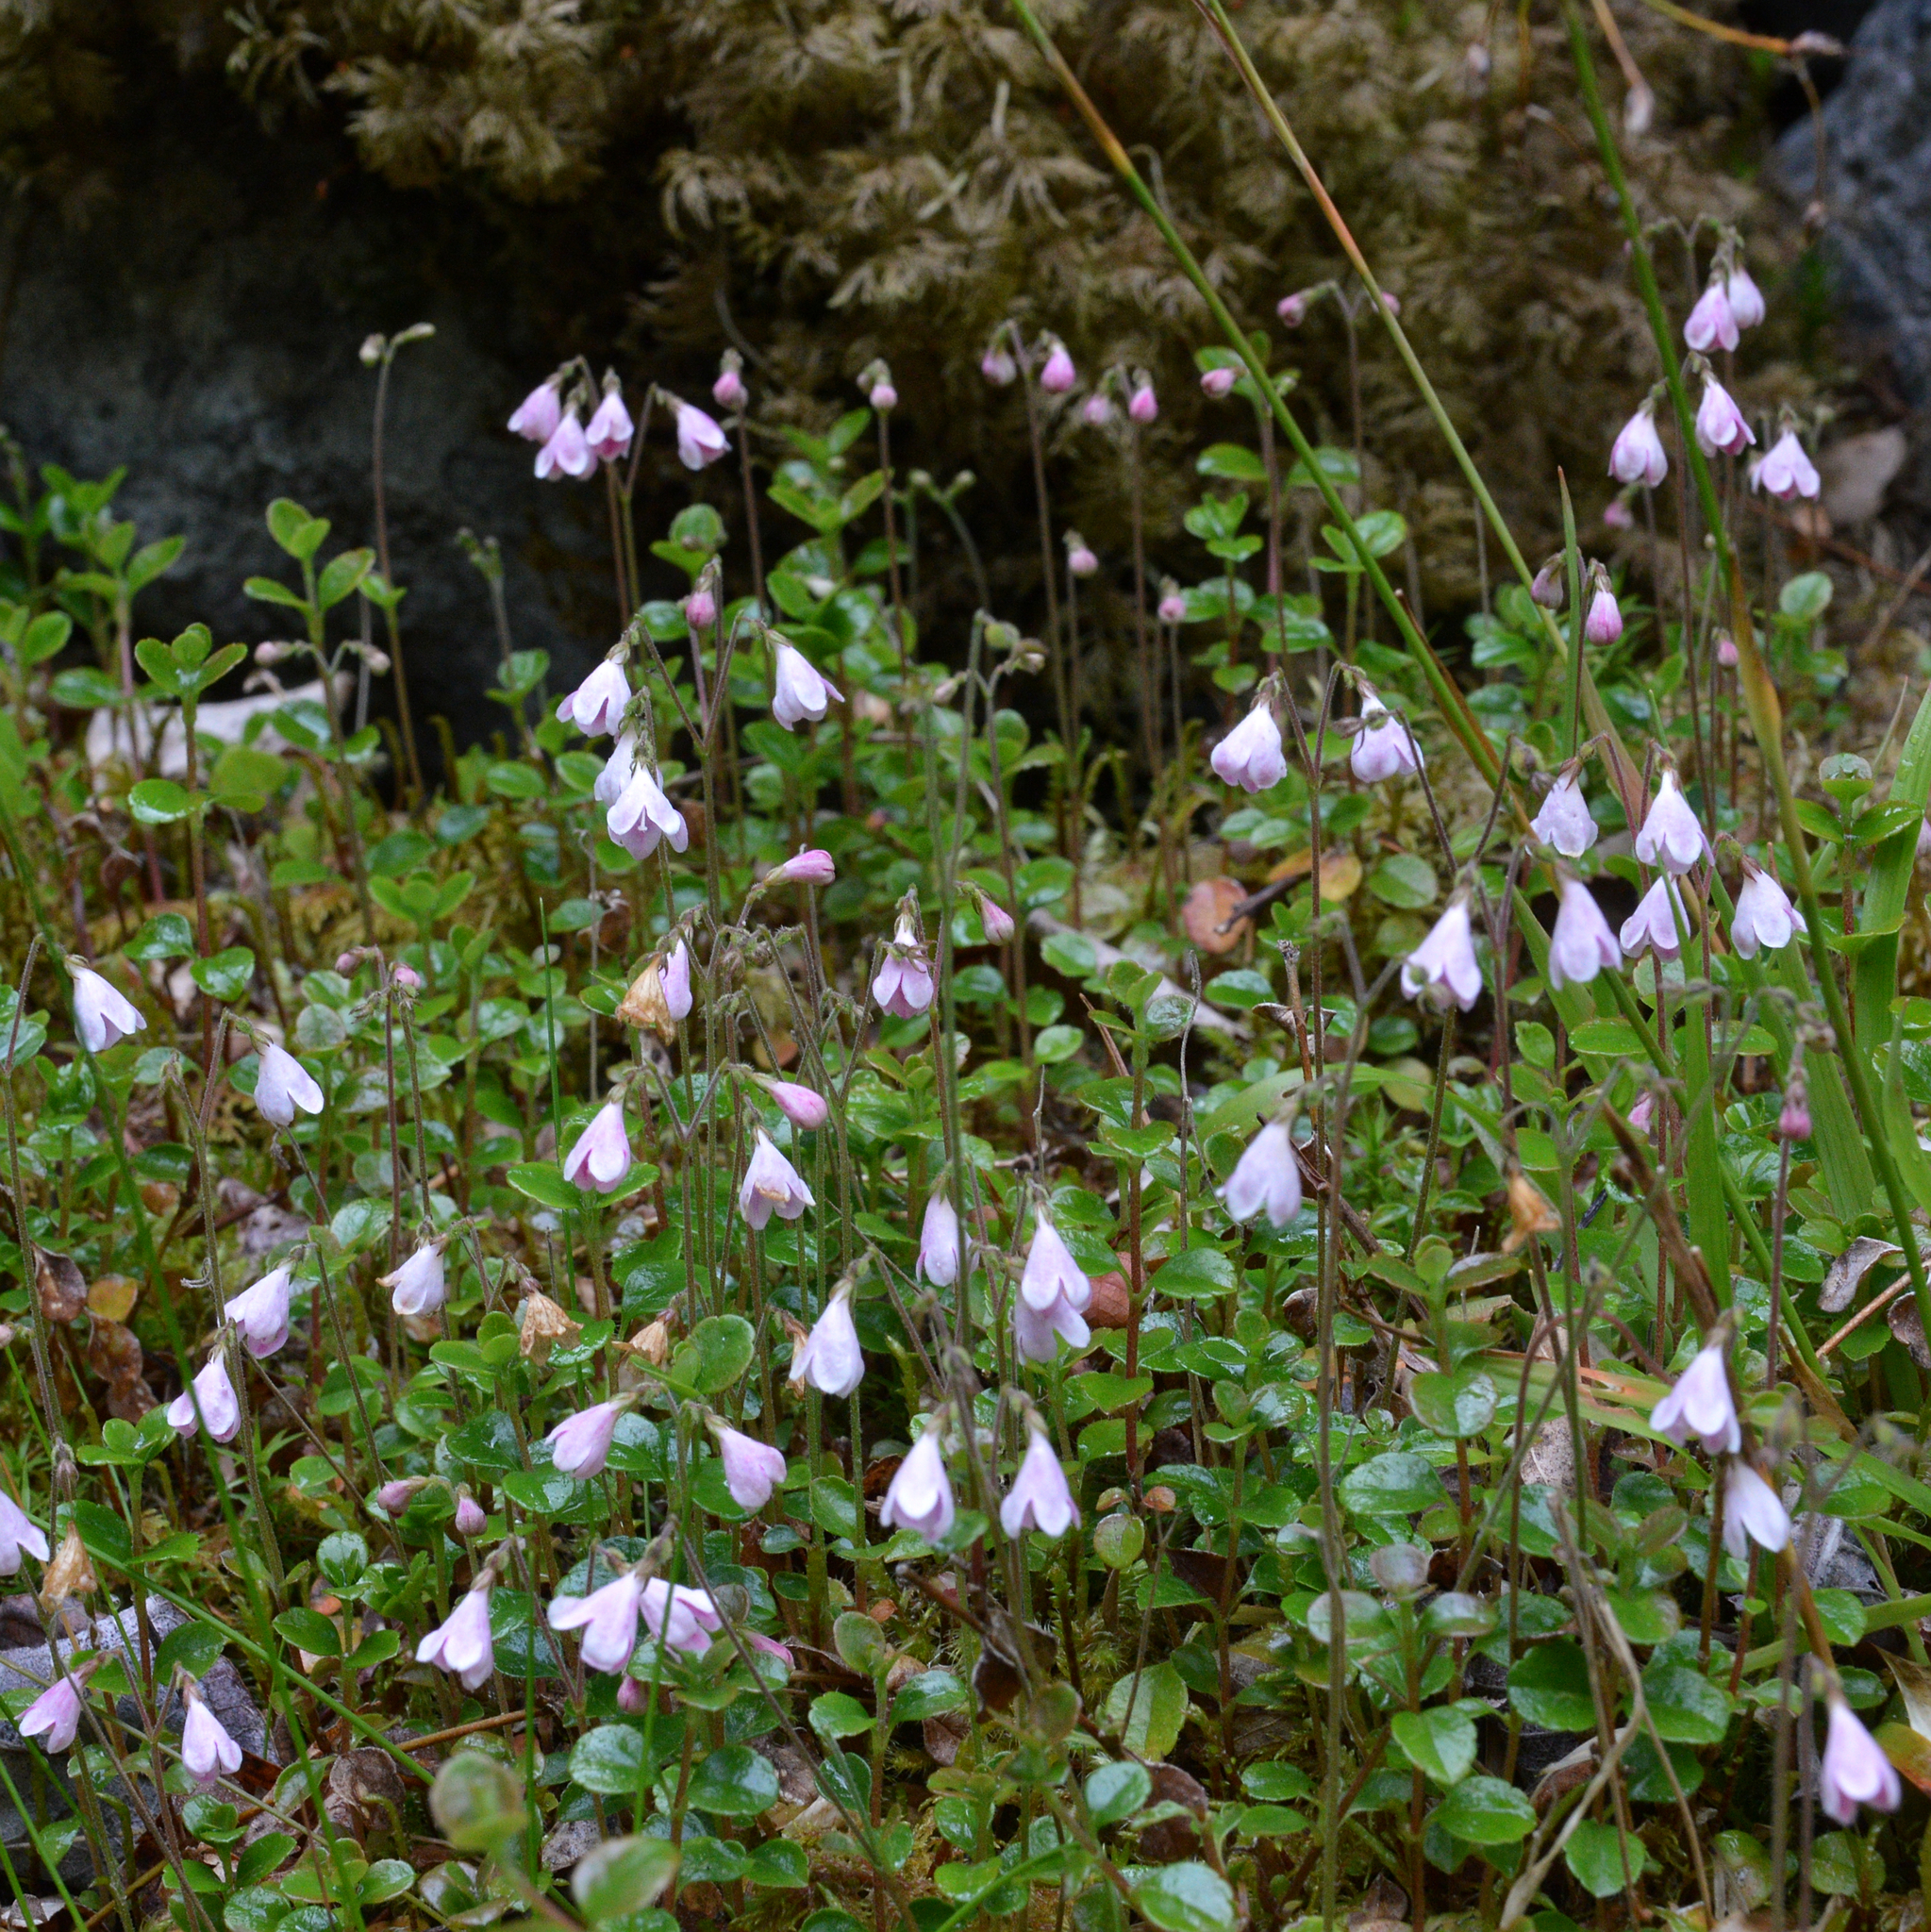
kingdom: Plantae
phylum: Tracheophyta
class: Magnoliopsida
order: Dipsacales
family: Caprifoliaceae
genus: Linnaea
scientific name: Linnaea borealis
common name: Twinflower
